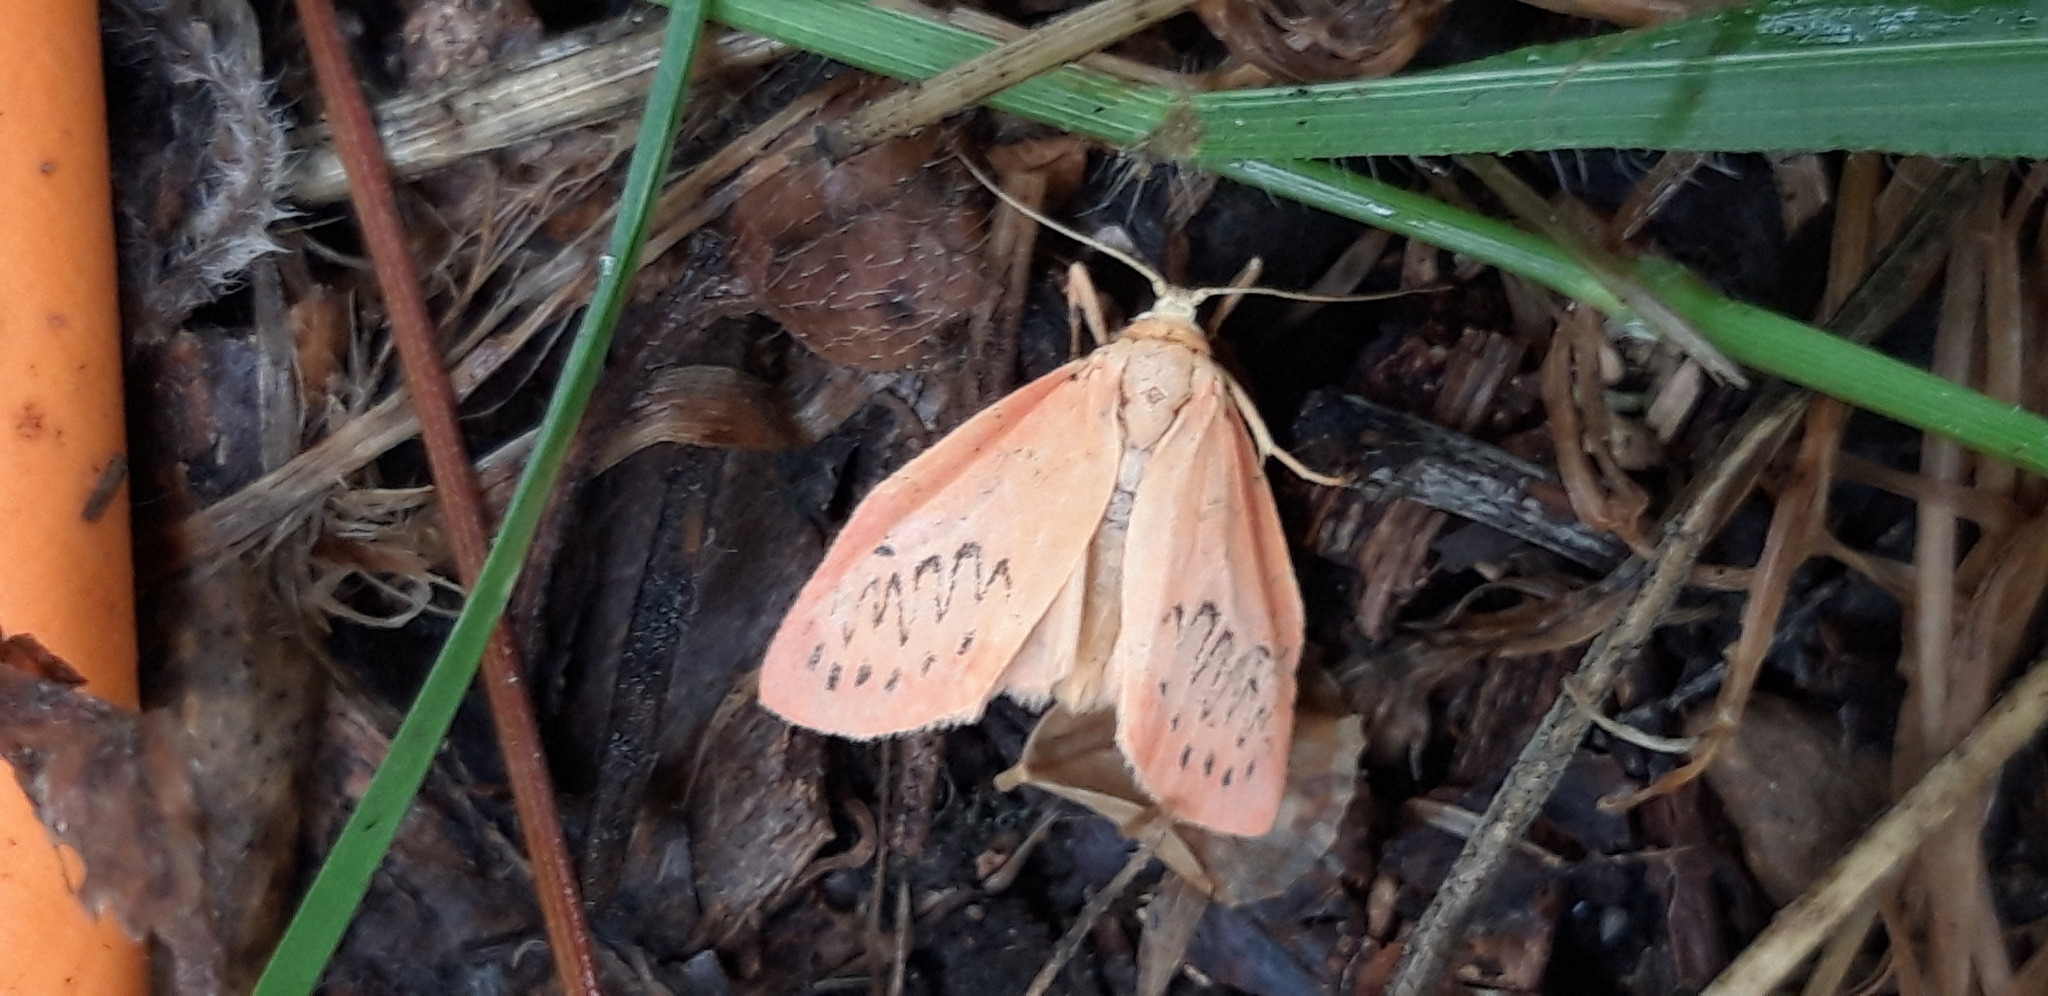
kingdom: Animalia
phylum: Arthropoda
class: Insecta
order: Lepidoptera
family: Erebidae
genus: Miltochrista
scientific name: Miltochrista miniata
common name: Rosy footman
